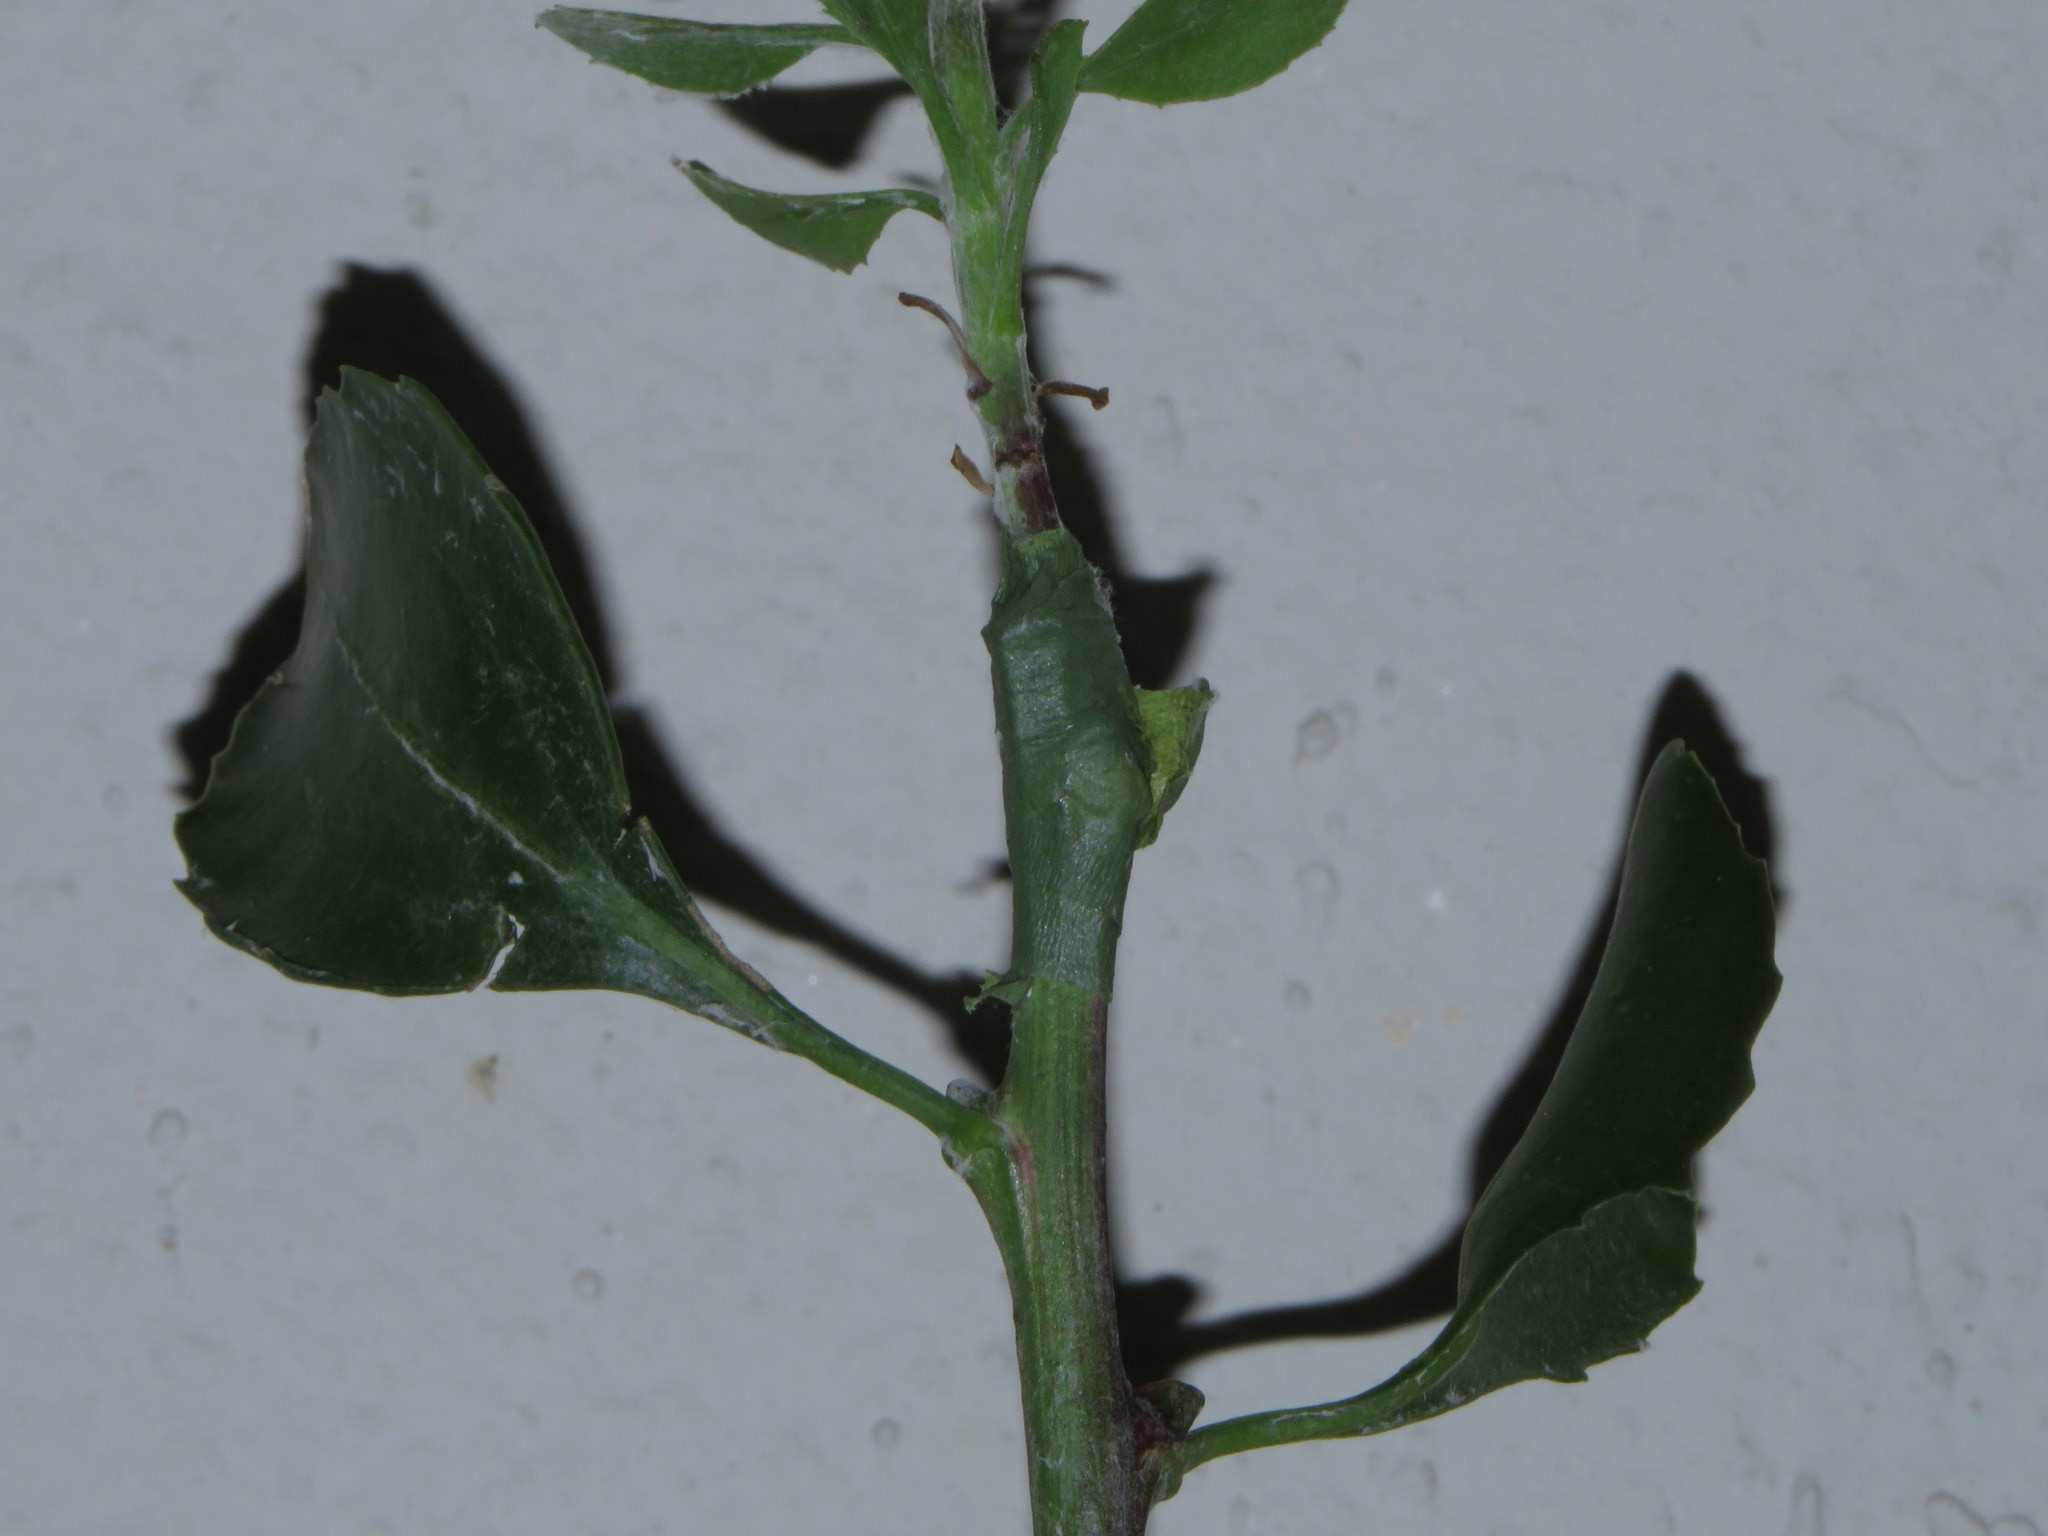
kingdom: Plantae
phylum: Tracheophyta
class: Magnoliopsida
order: Asterales
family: Asteraceae
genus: Osteospermum
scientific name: Osteospermum moniliferum
